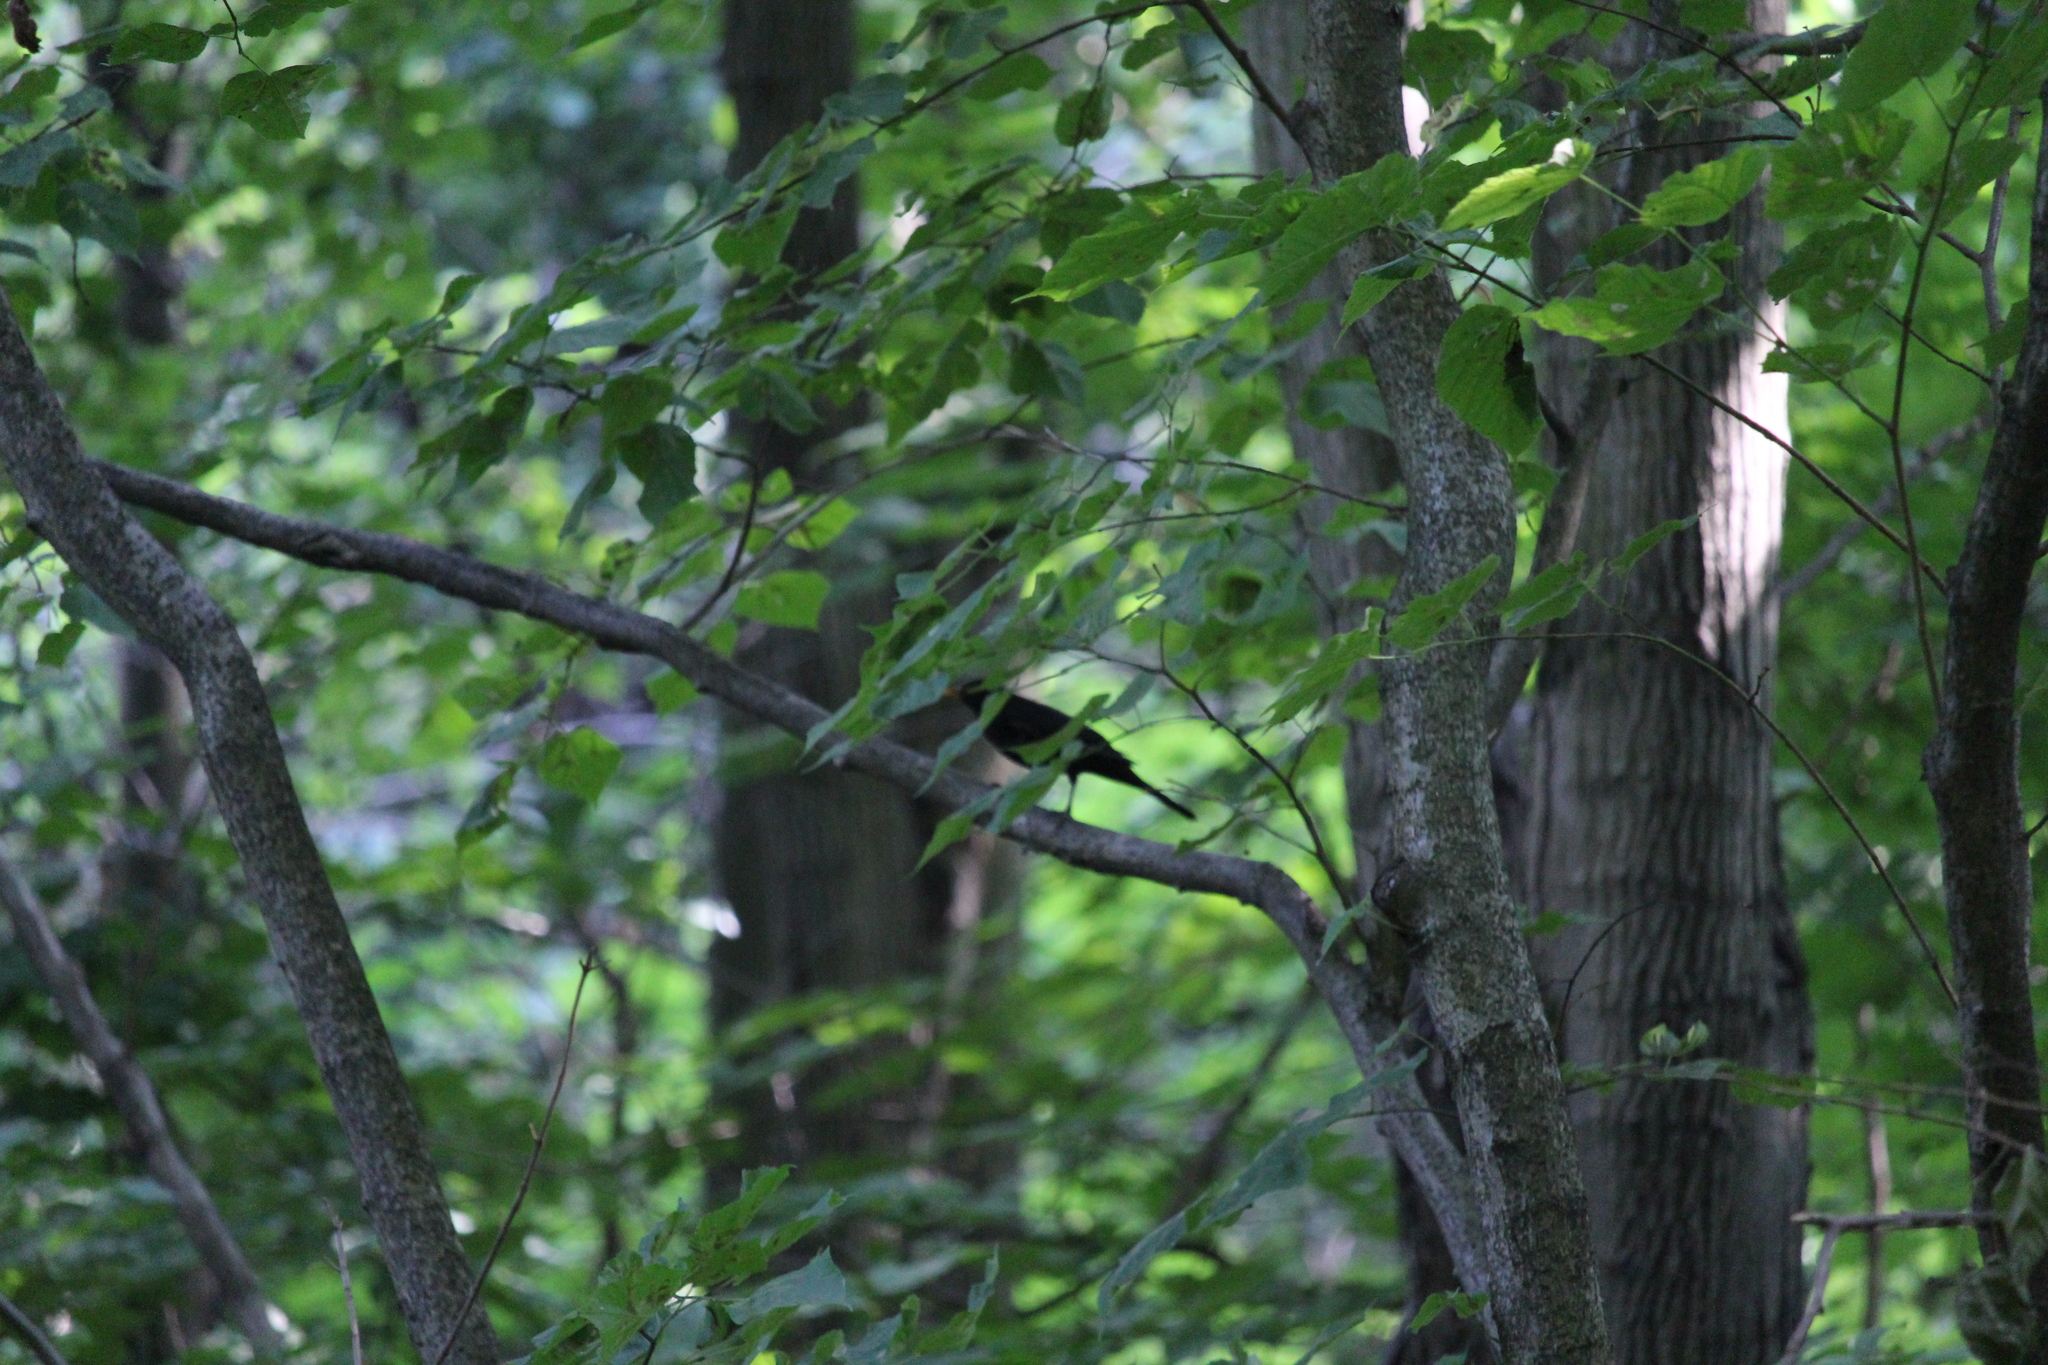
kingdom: Animalia
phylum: Chordata
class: Aves
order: Passeriformes
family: Turdidae
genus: Turdus
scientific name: Turdus merula
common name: Common blackbird
